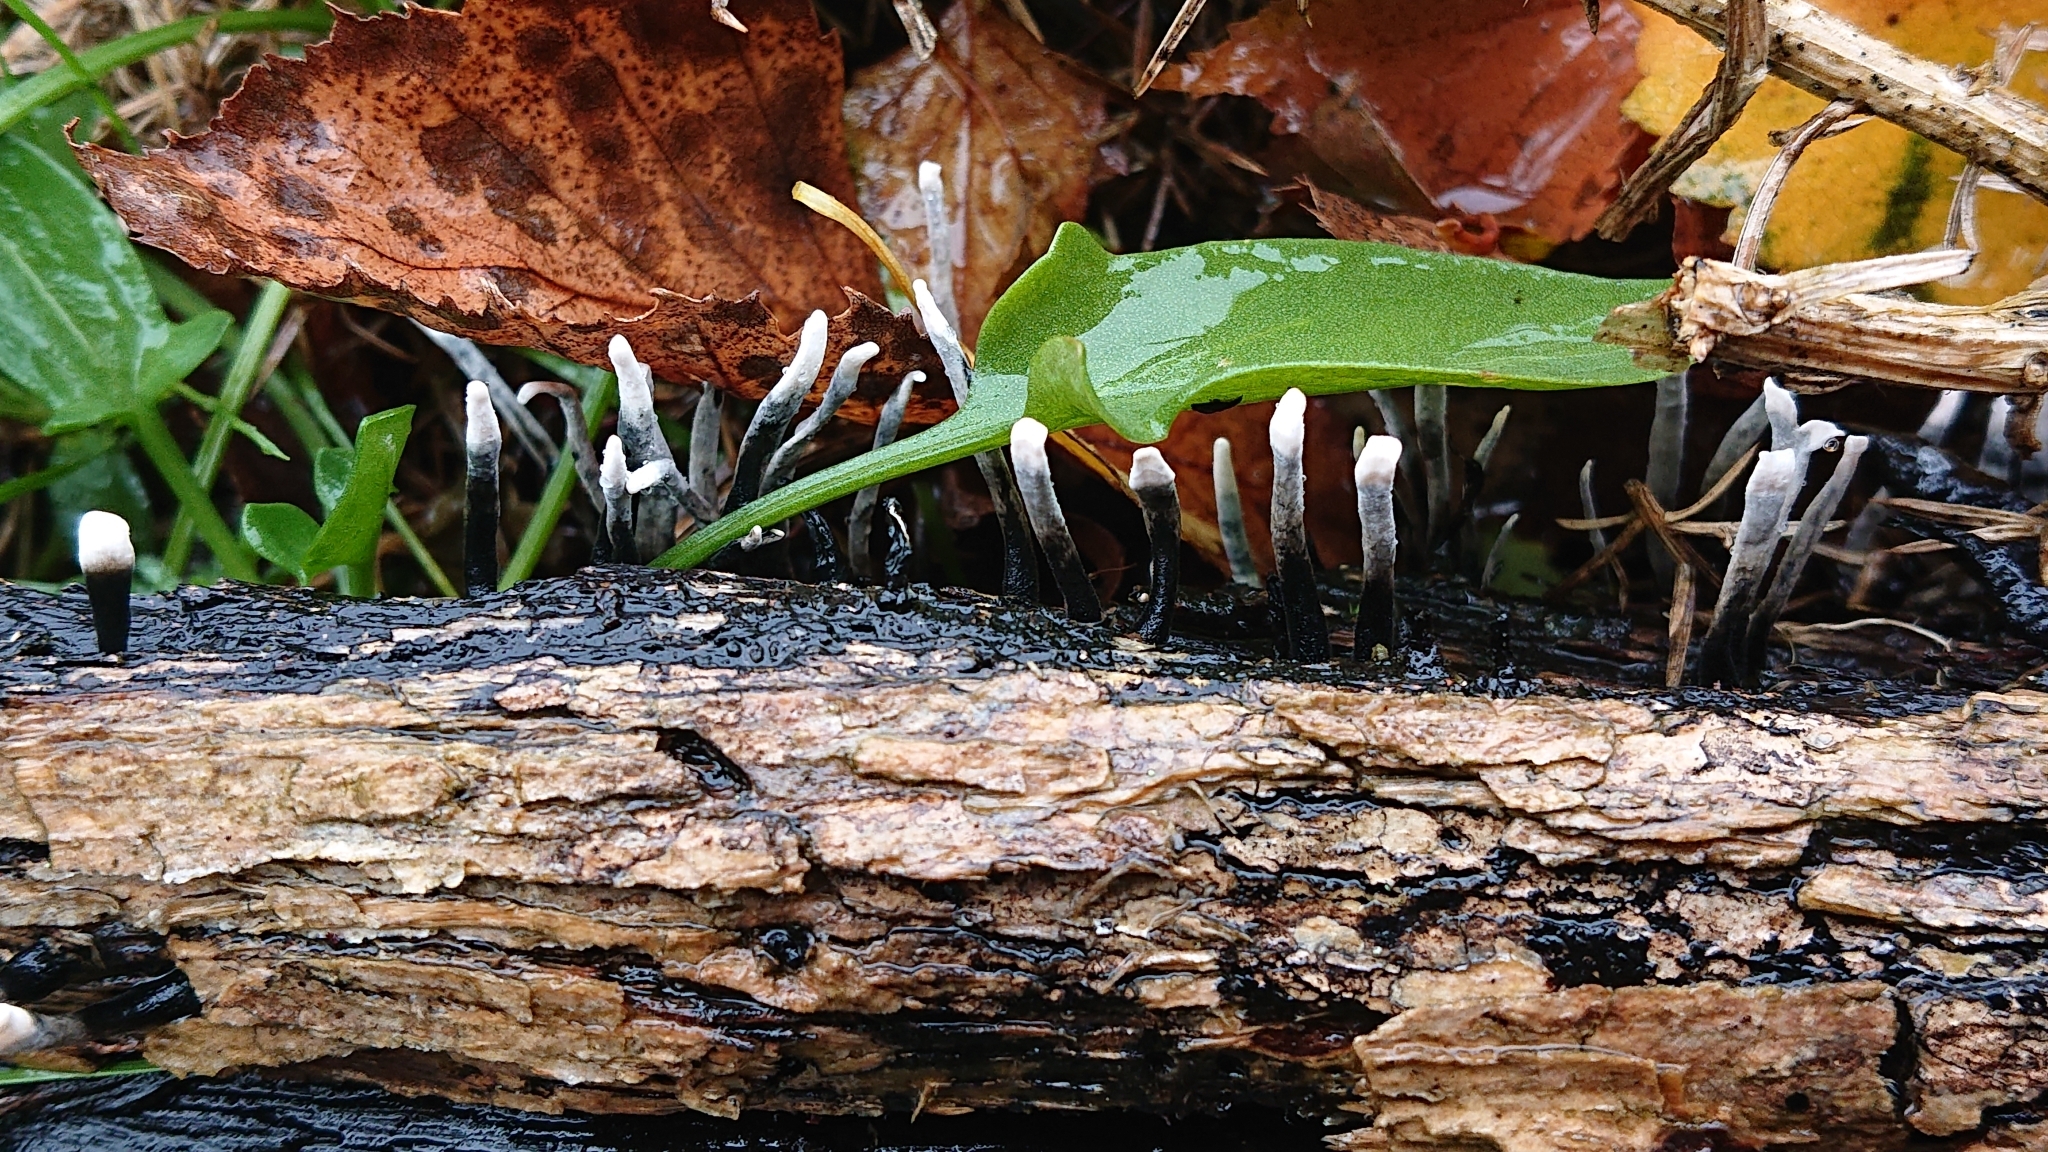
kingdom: Fungi
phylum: Ascomycota
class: Sordariomycetes
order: Xylariales
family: Xylariaceae
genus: Xylaria
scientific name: Xylaria hypoxylon
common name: Candle-snuff fungus
